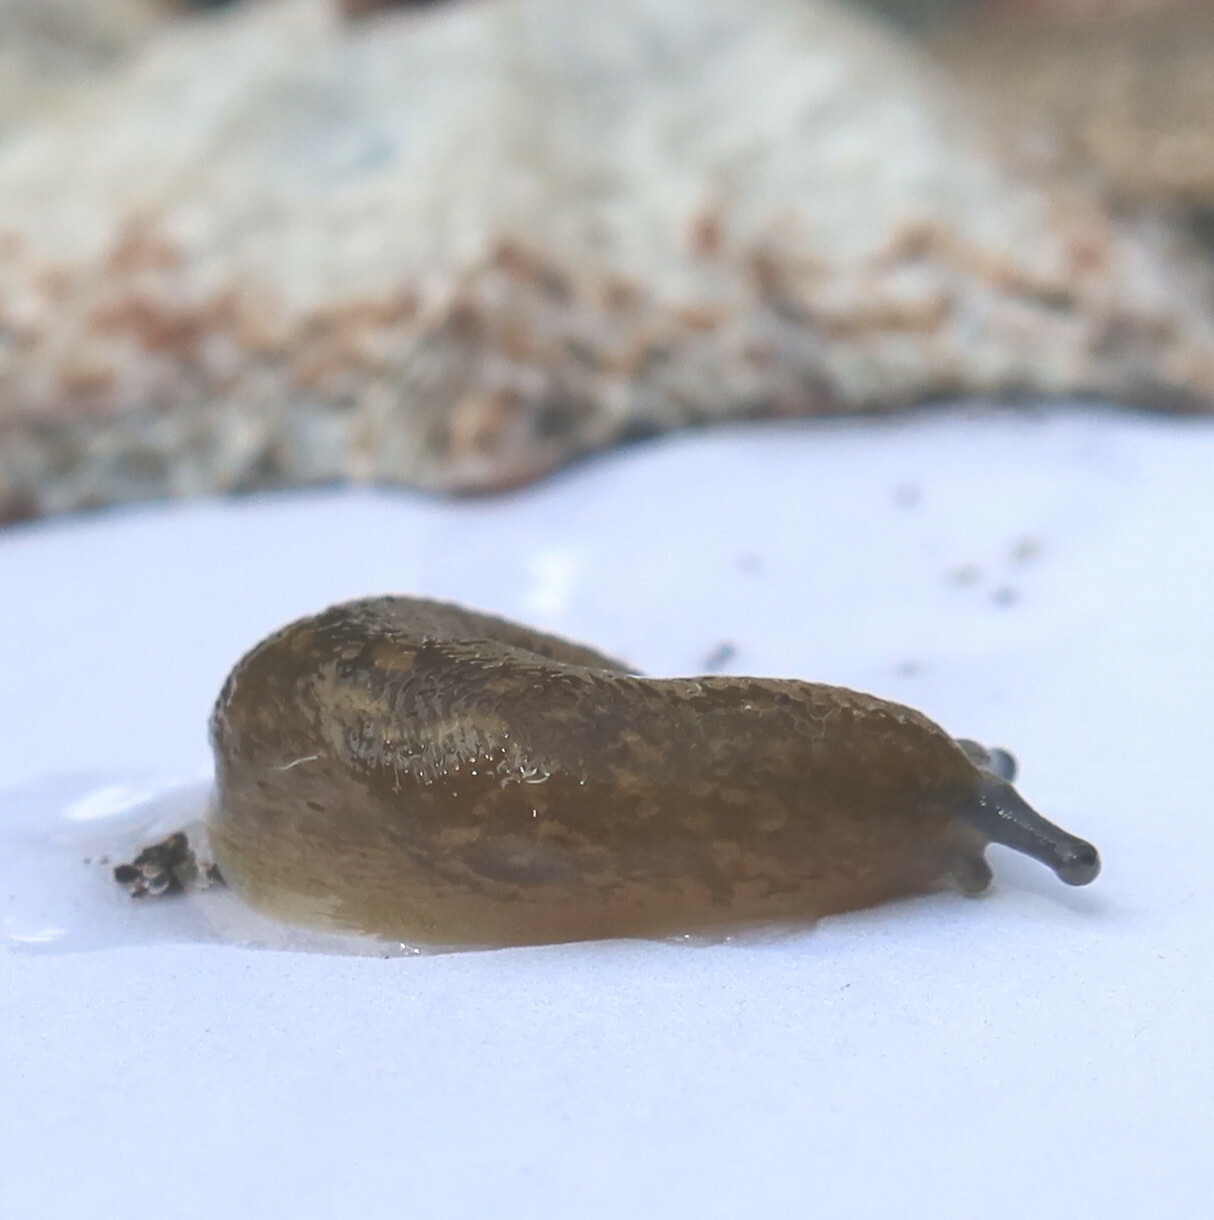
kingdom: Animalia
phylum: Mollusca
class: Gastropoda
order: Stylommatophora
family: Limacidae
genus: Limacus
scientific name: Limacus flavus
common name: Yellow gardenslug
